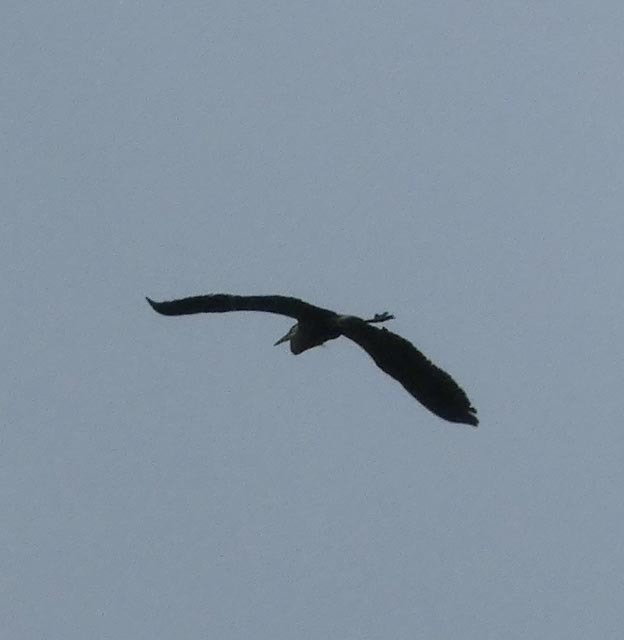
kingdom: Animalia
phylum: Chordata
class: Aves
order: Pelecaniformes
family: Ardeidae
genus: Ardea
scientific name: Ardea herodias
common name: Great blue heron
